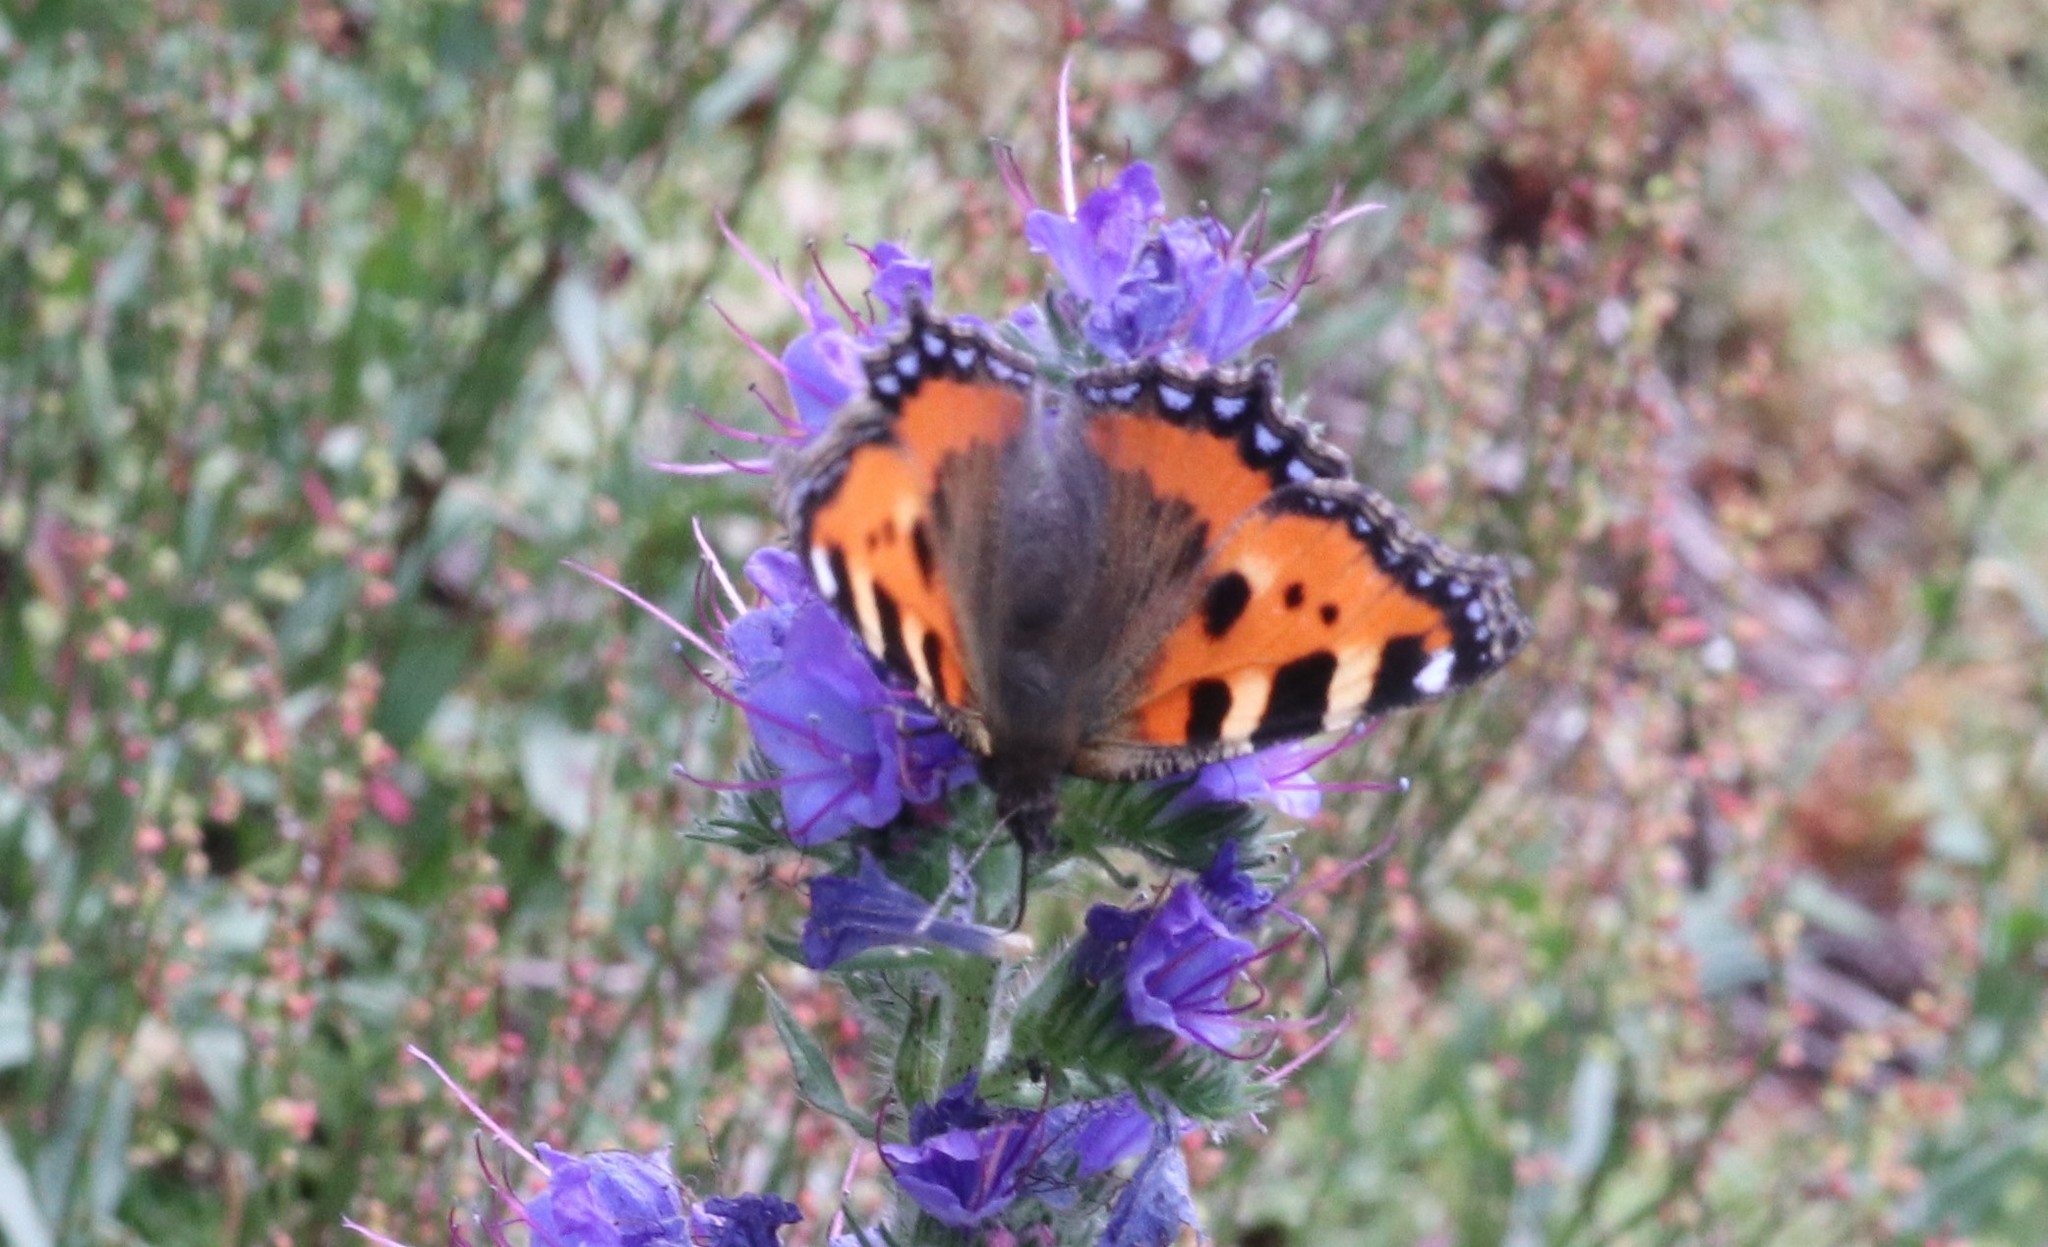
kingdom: Animalia
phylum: Arthropoda
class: Insecta
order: Lepidoptera
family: Nymphalidae
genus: Aglais
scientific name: Aglais urticae
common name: Small tortoiseshell
